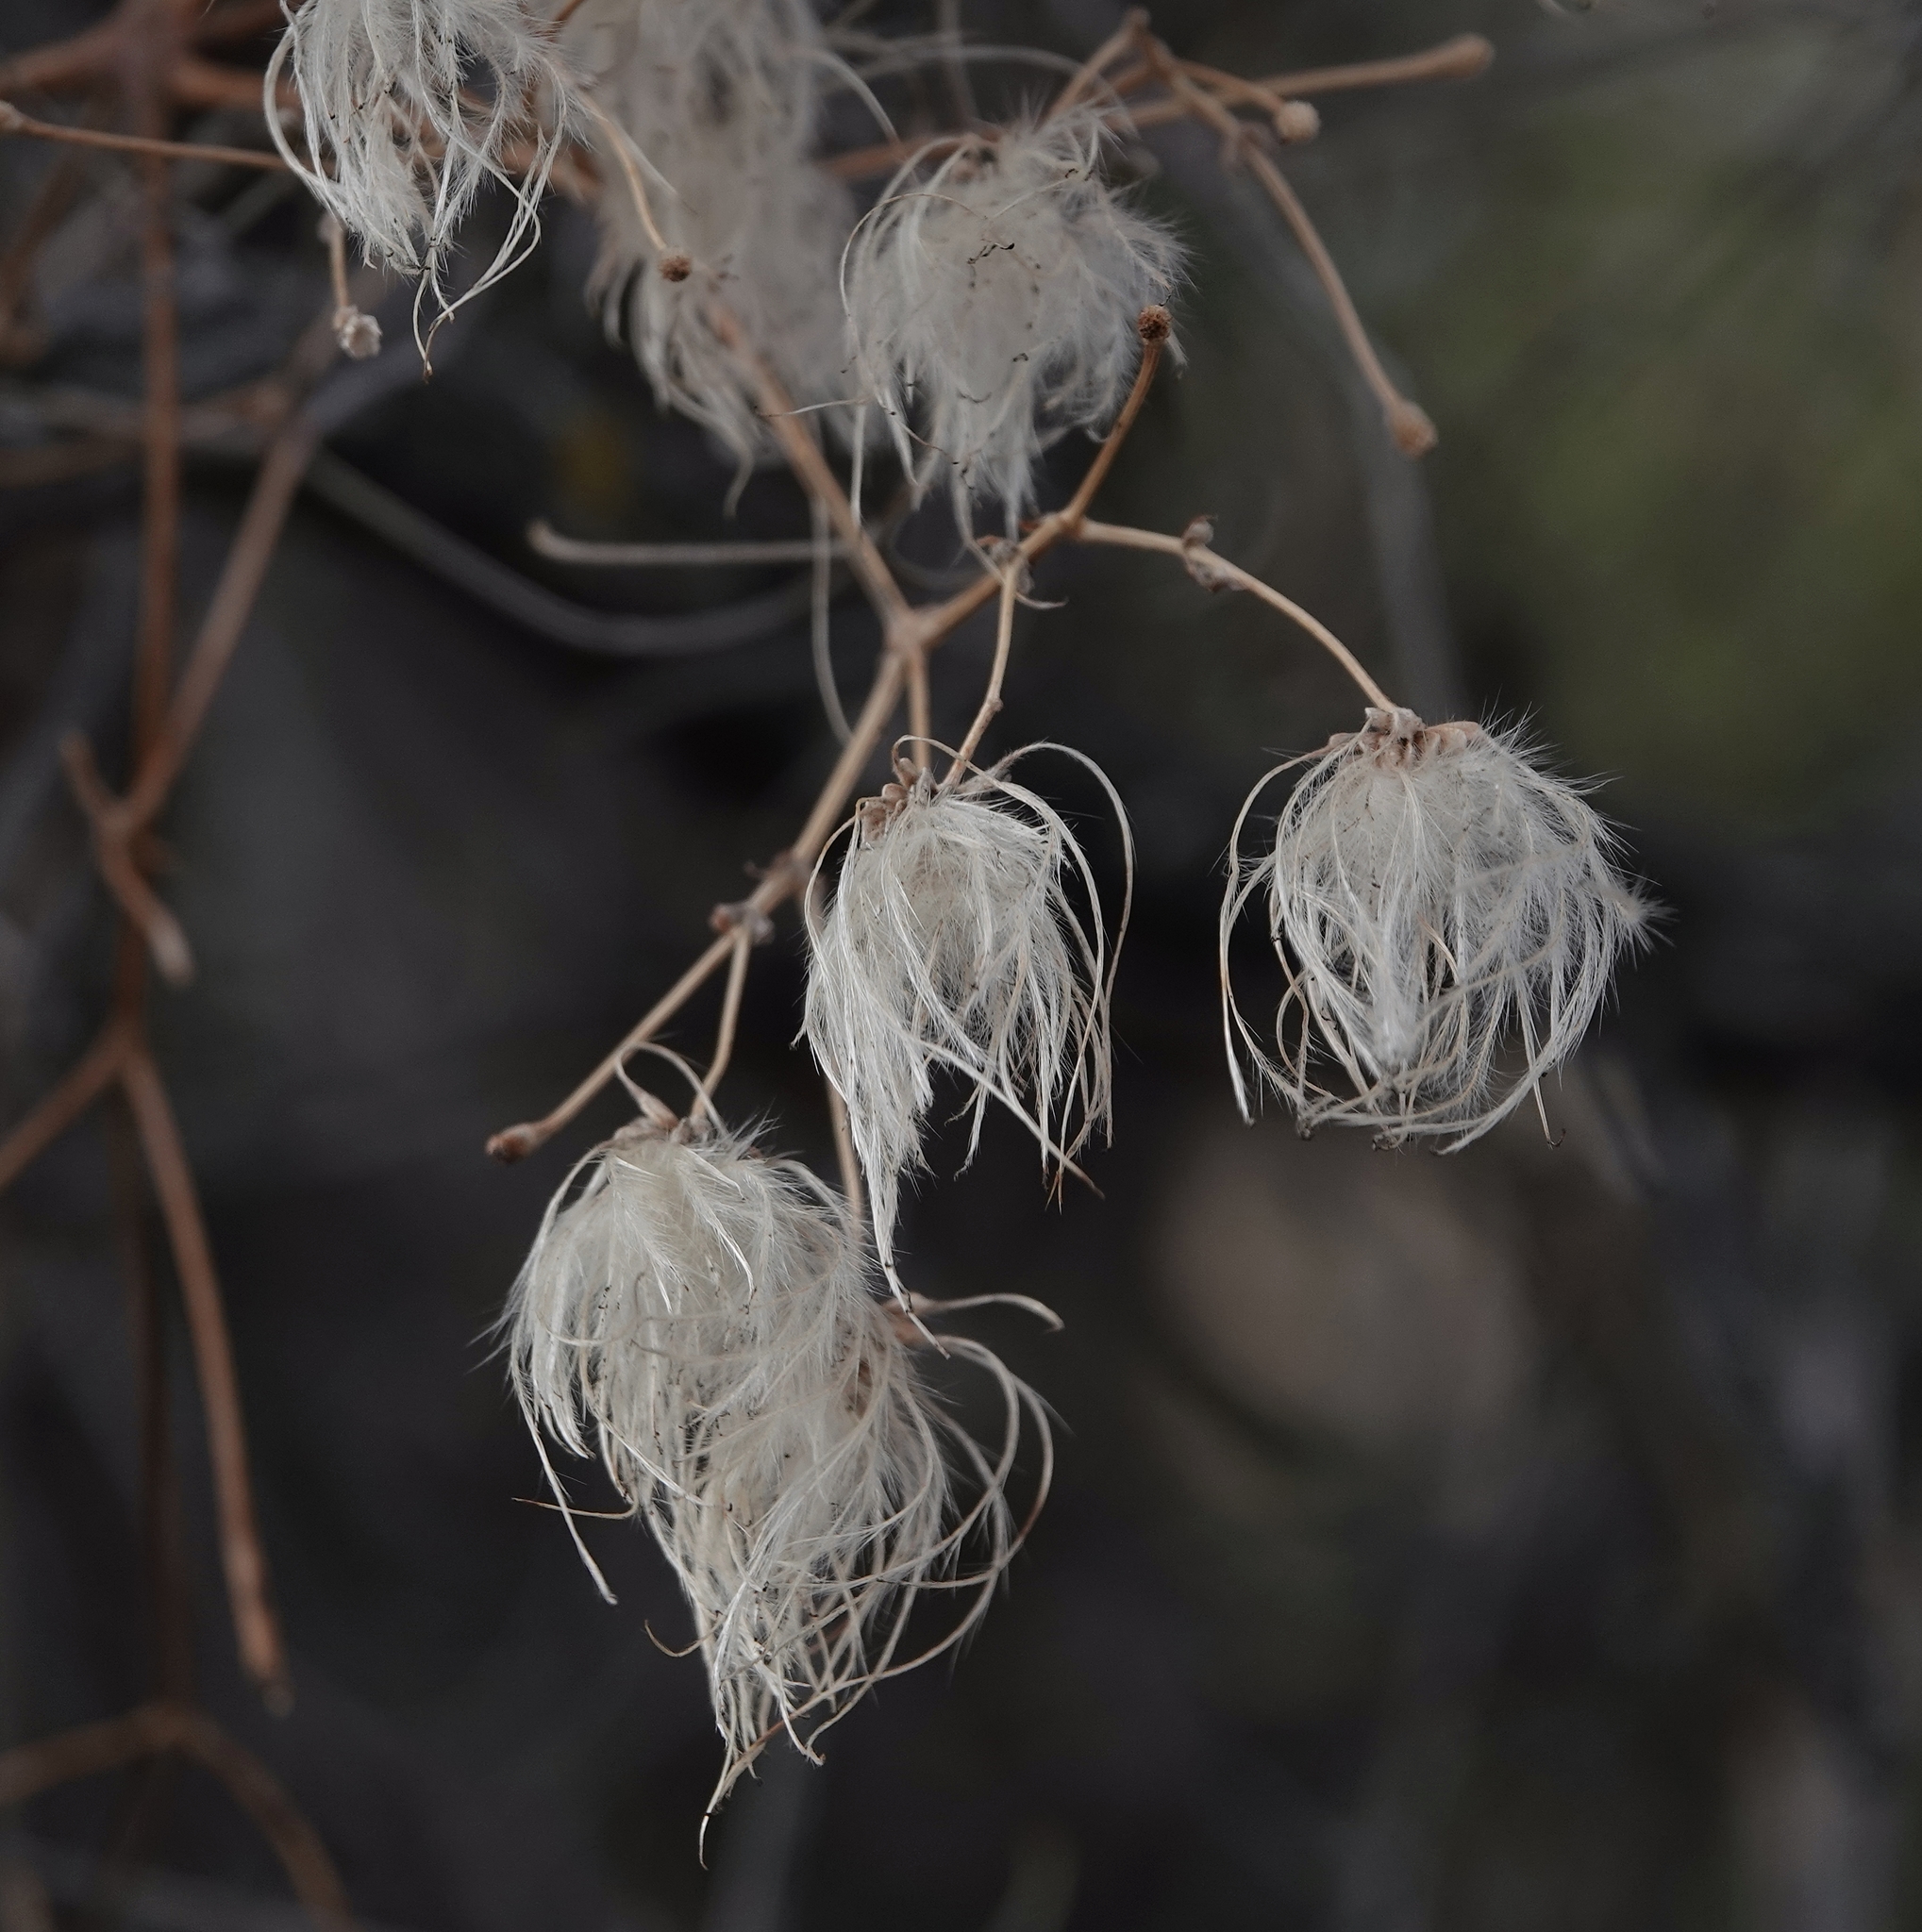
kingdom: Plantae
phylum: Tracheophyta
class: Magnoliopsida
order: Ranunculales
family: Ranunculaceae
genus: Clematis
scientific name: Clematis ligusticifolia
